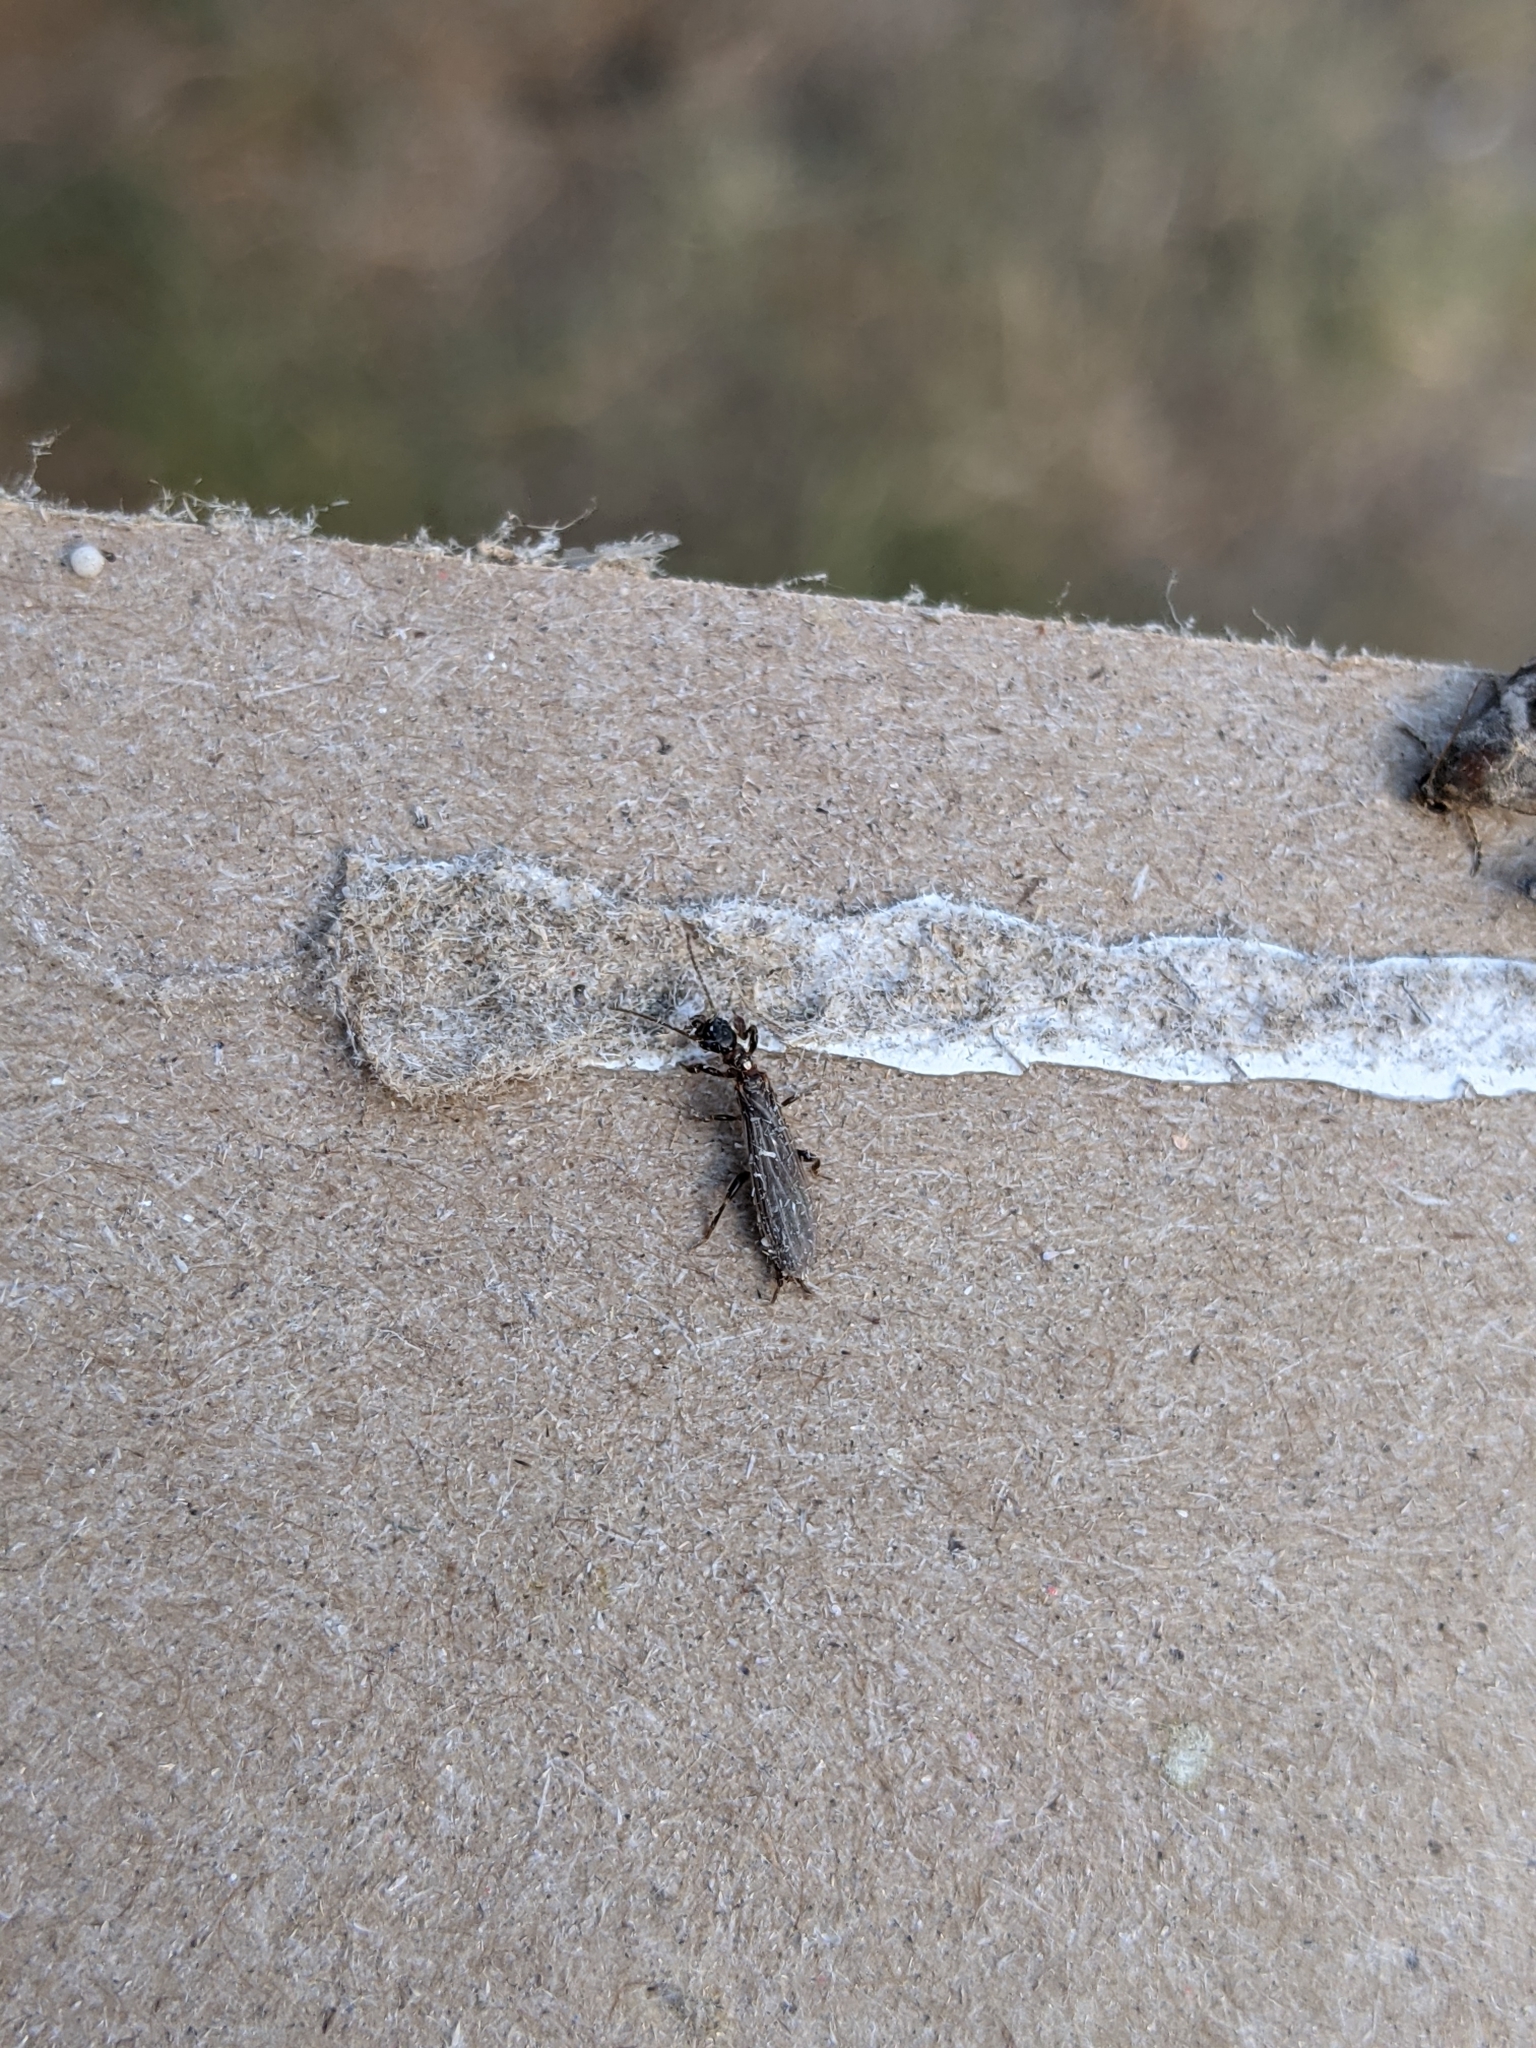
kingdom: Animalia
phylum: Arthropoda
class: Insecta
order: Embioptera
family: Oligotomidae
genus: Oligotoma
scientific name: Oligotoma nigra
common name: Black webspinner
